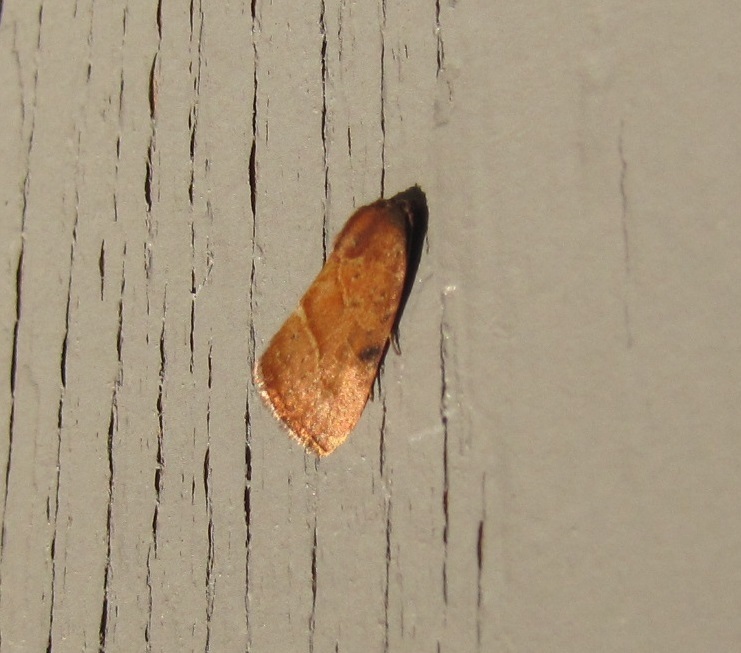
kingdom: Animalia
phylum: Arthropoda
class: Insecta
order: Lepidoptera
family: Noctuidae
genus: Galgula
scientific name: Galgula partita
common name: Wedgeling
